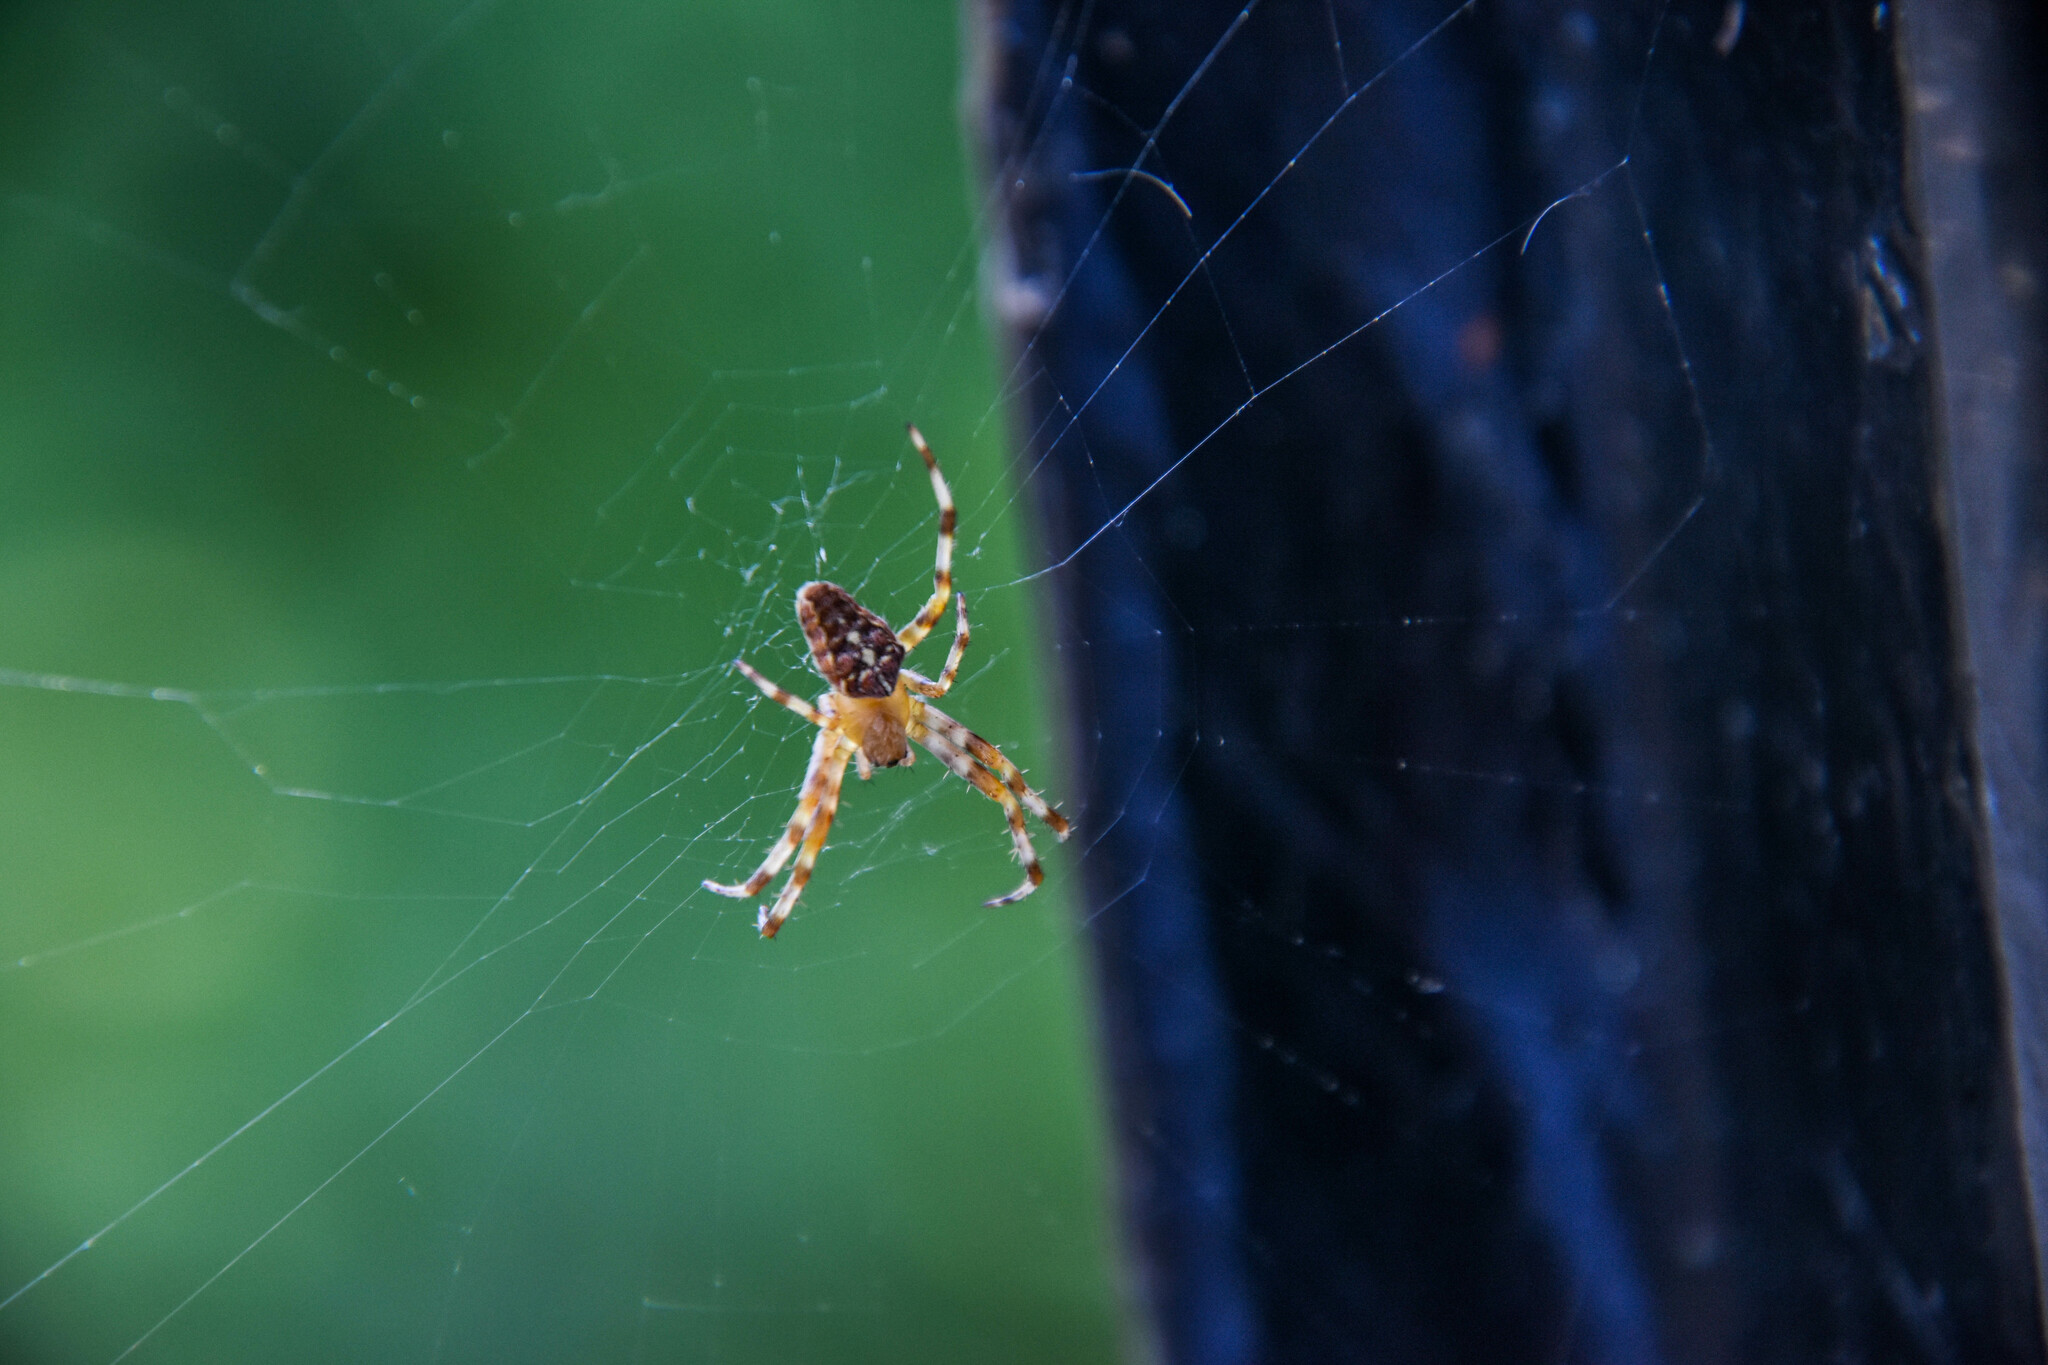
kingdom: Animalia
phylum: Arthropoda
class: Arachnida
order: Araneae
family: Araneidae
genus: Araneus
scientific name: Araneus diadematus
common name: Cross orbweaver
